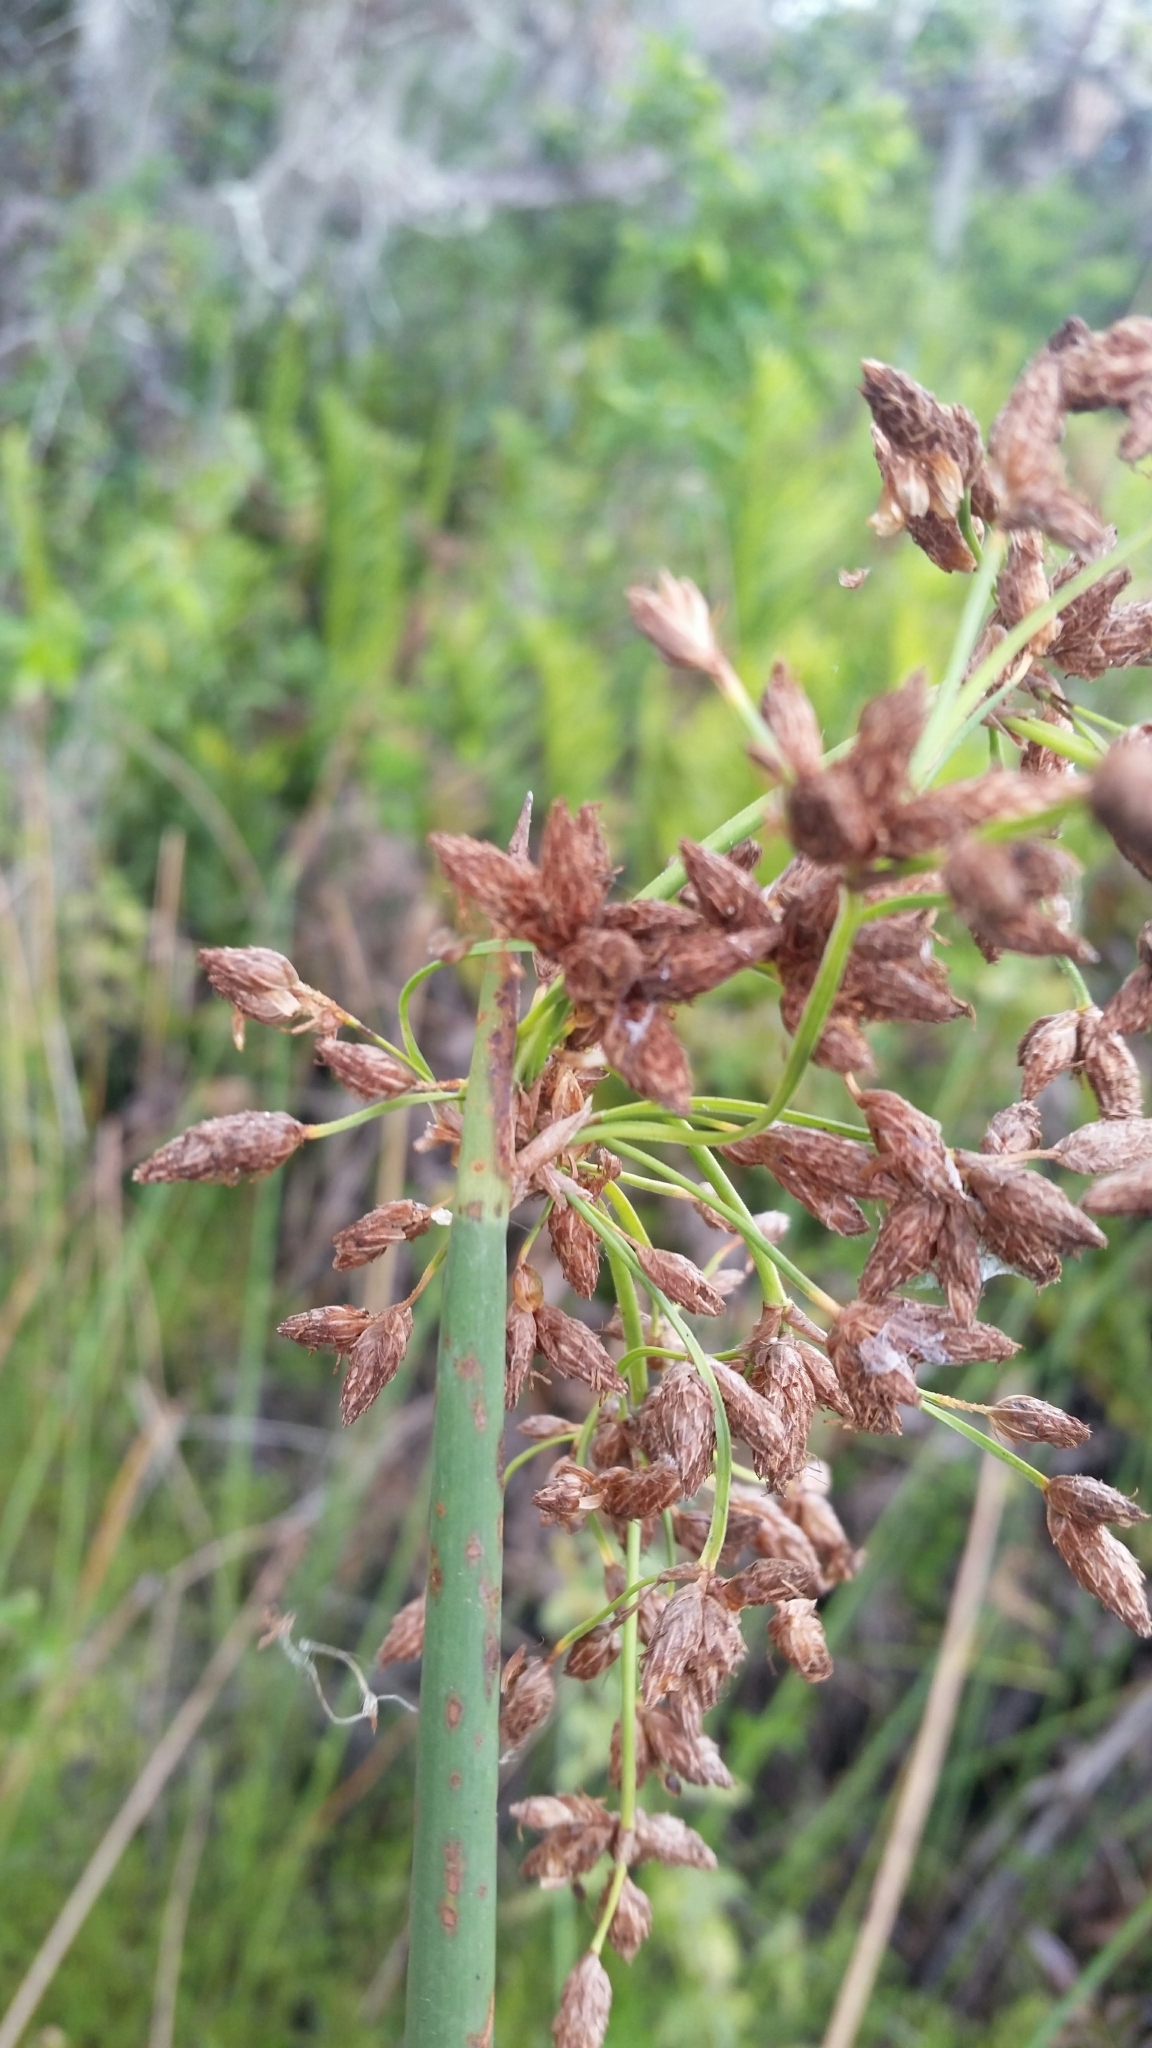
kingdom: Plantae
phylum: Tracheophyta
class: Liliopsida
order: Poales
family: Cyperaceae
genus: Schoenoplectus
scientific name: Schoenoplectus tabernaemontani
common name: Grey club-rush
